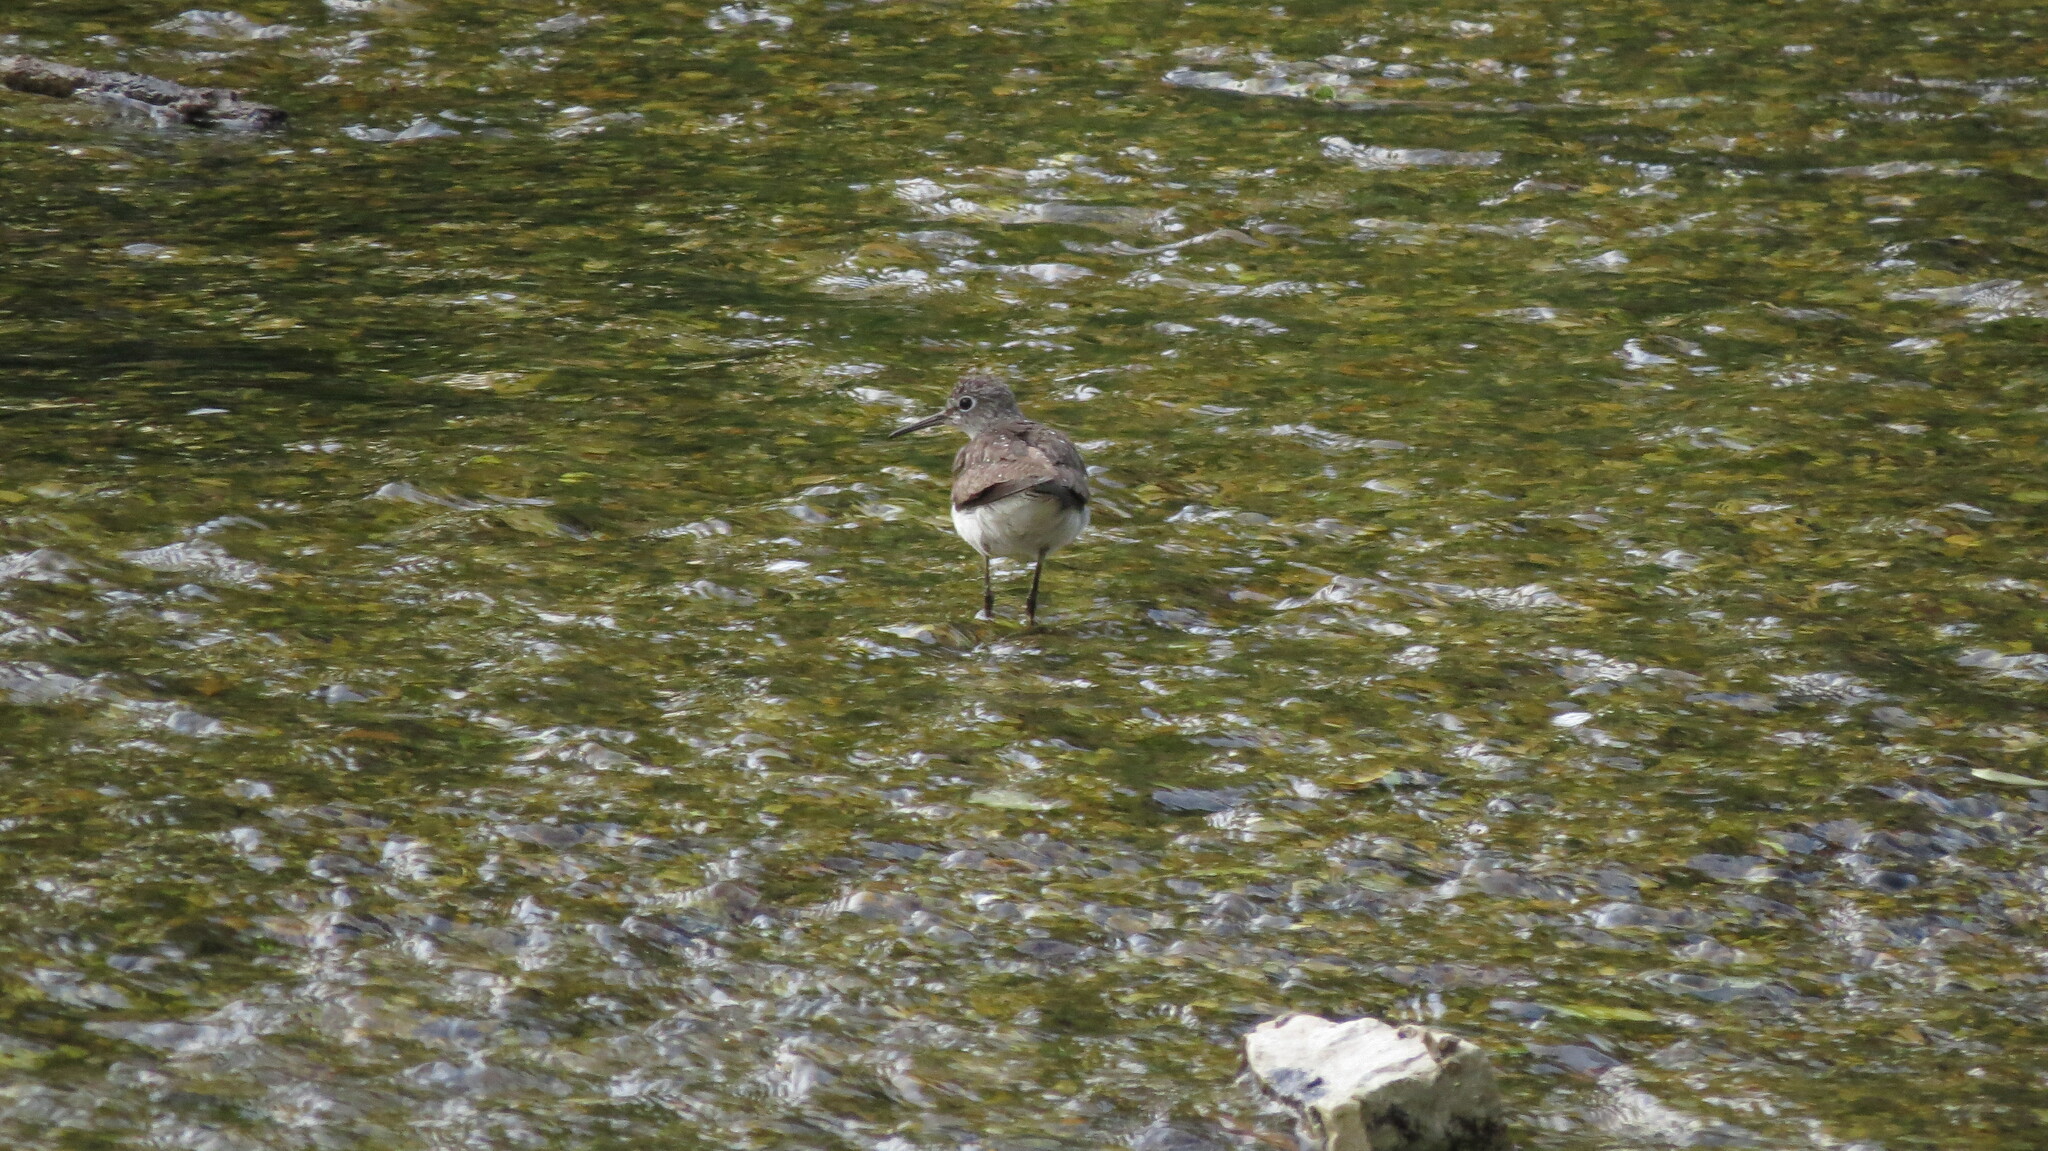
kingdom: Animalia
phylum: Chordata
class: Aves
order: Charadriiformes
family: Scolopacidae
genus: Tringa
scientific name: Tringa solitaria
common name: Solitary sandpiper
